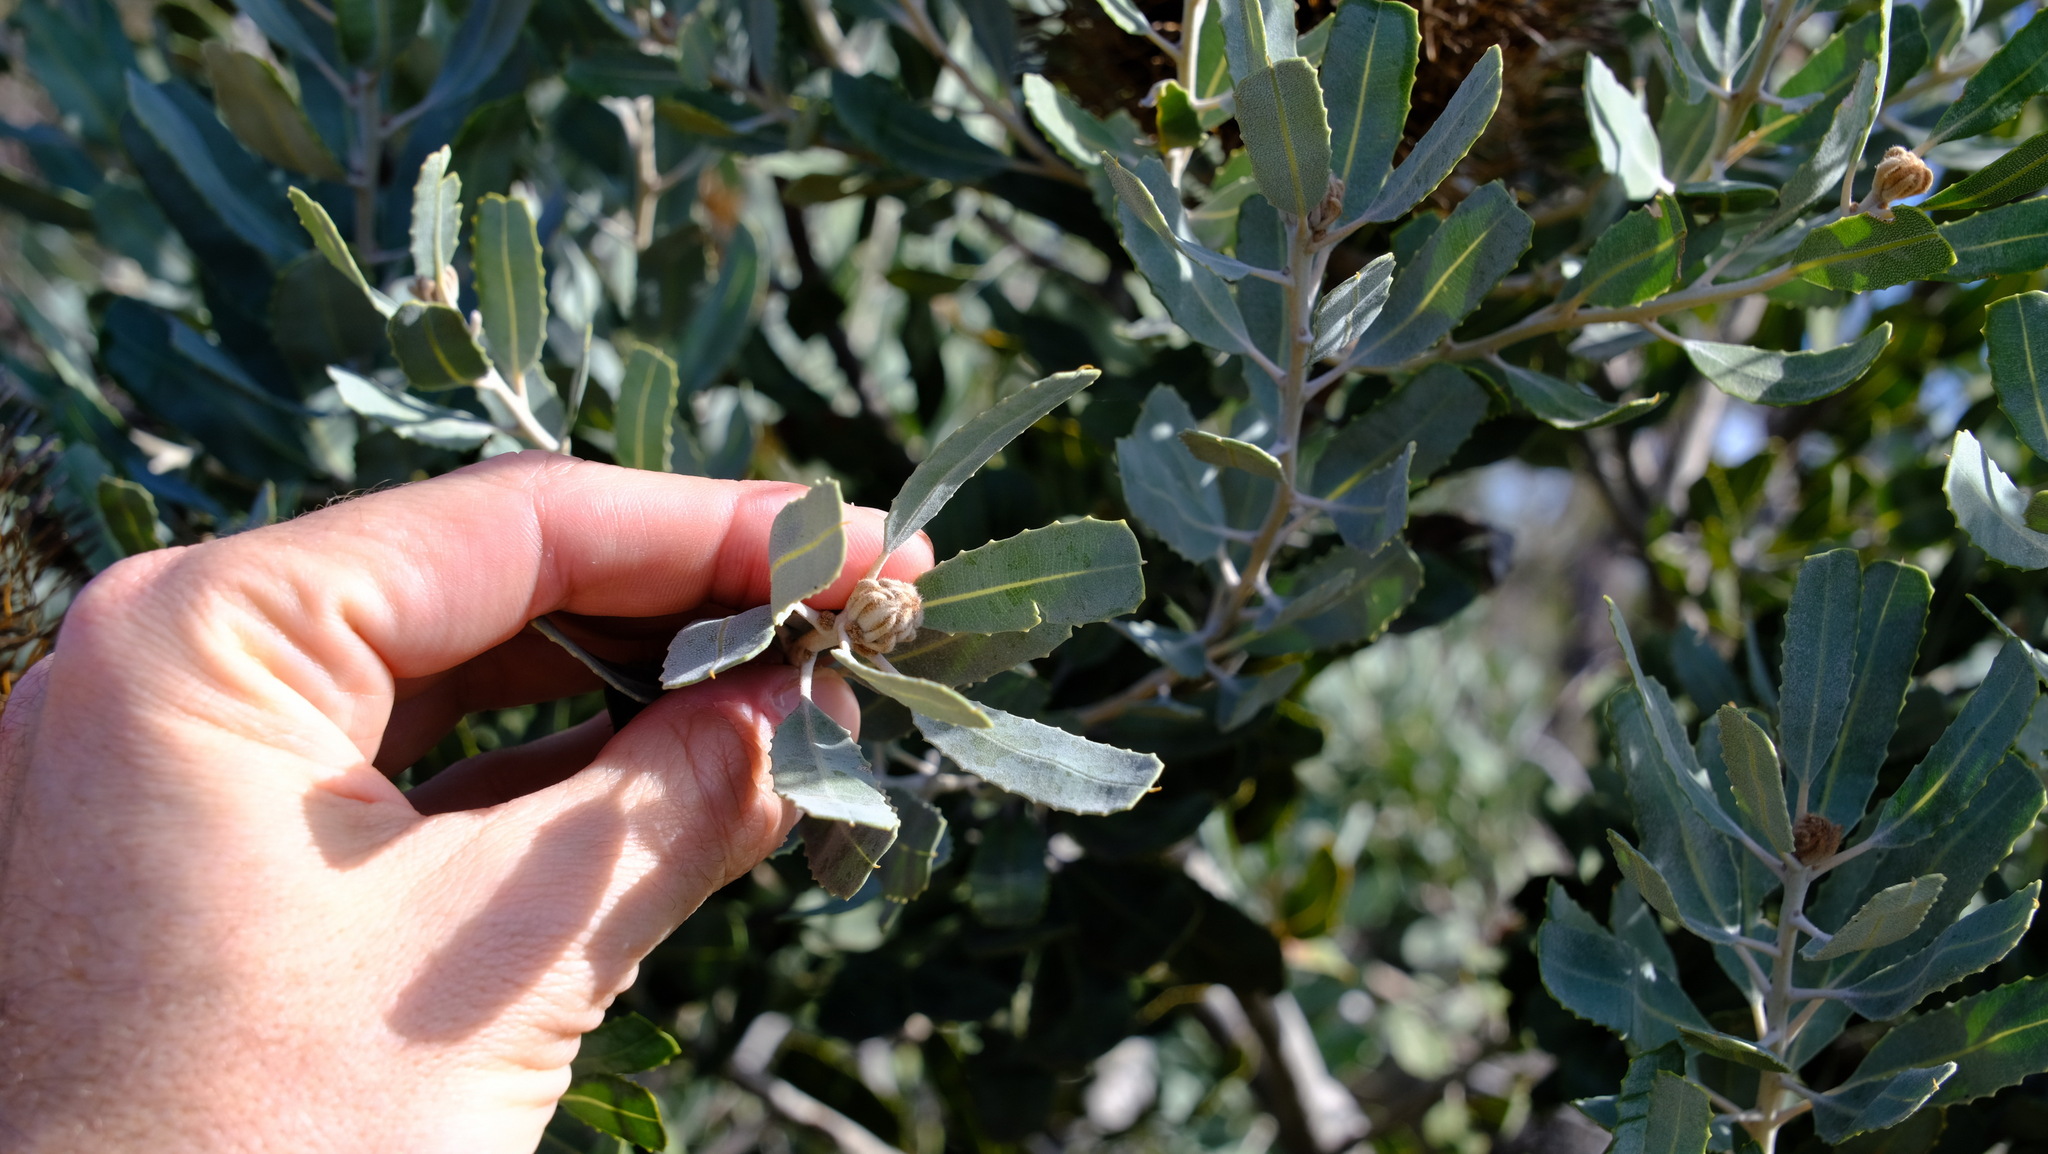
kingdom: Plantae
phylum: Tracheophyta
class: Magnoliopsida
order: Proteales
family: Proteaceae
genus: Banksia
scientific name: Banksia sceptrum
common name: Sceptre banksia
